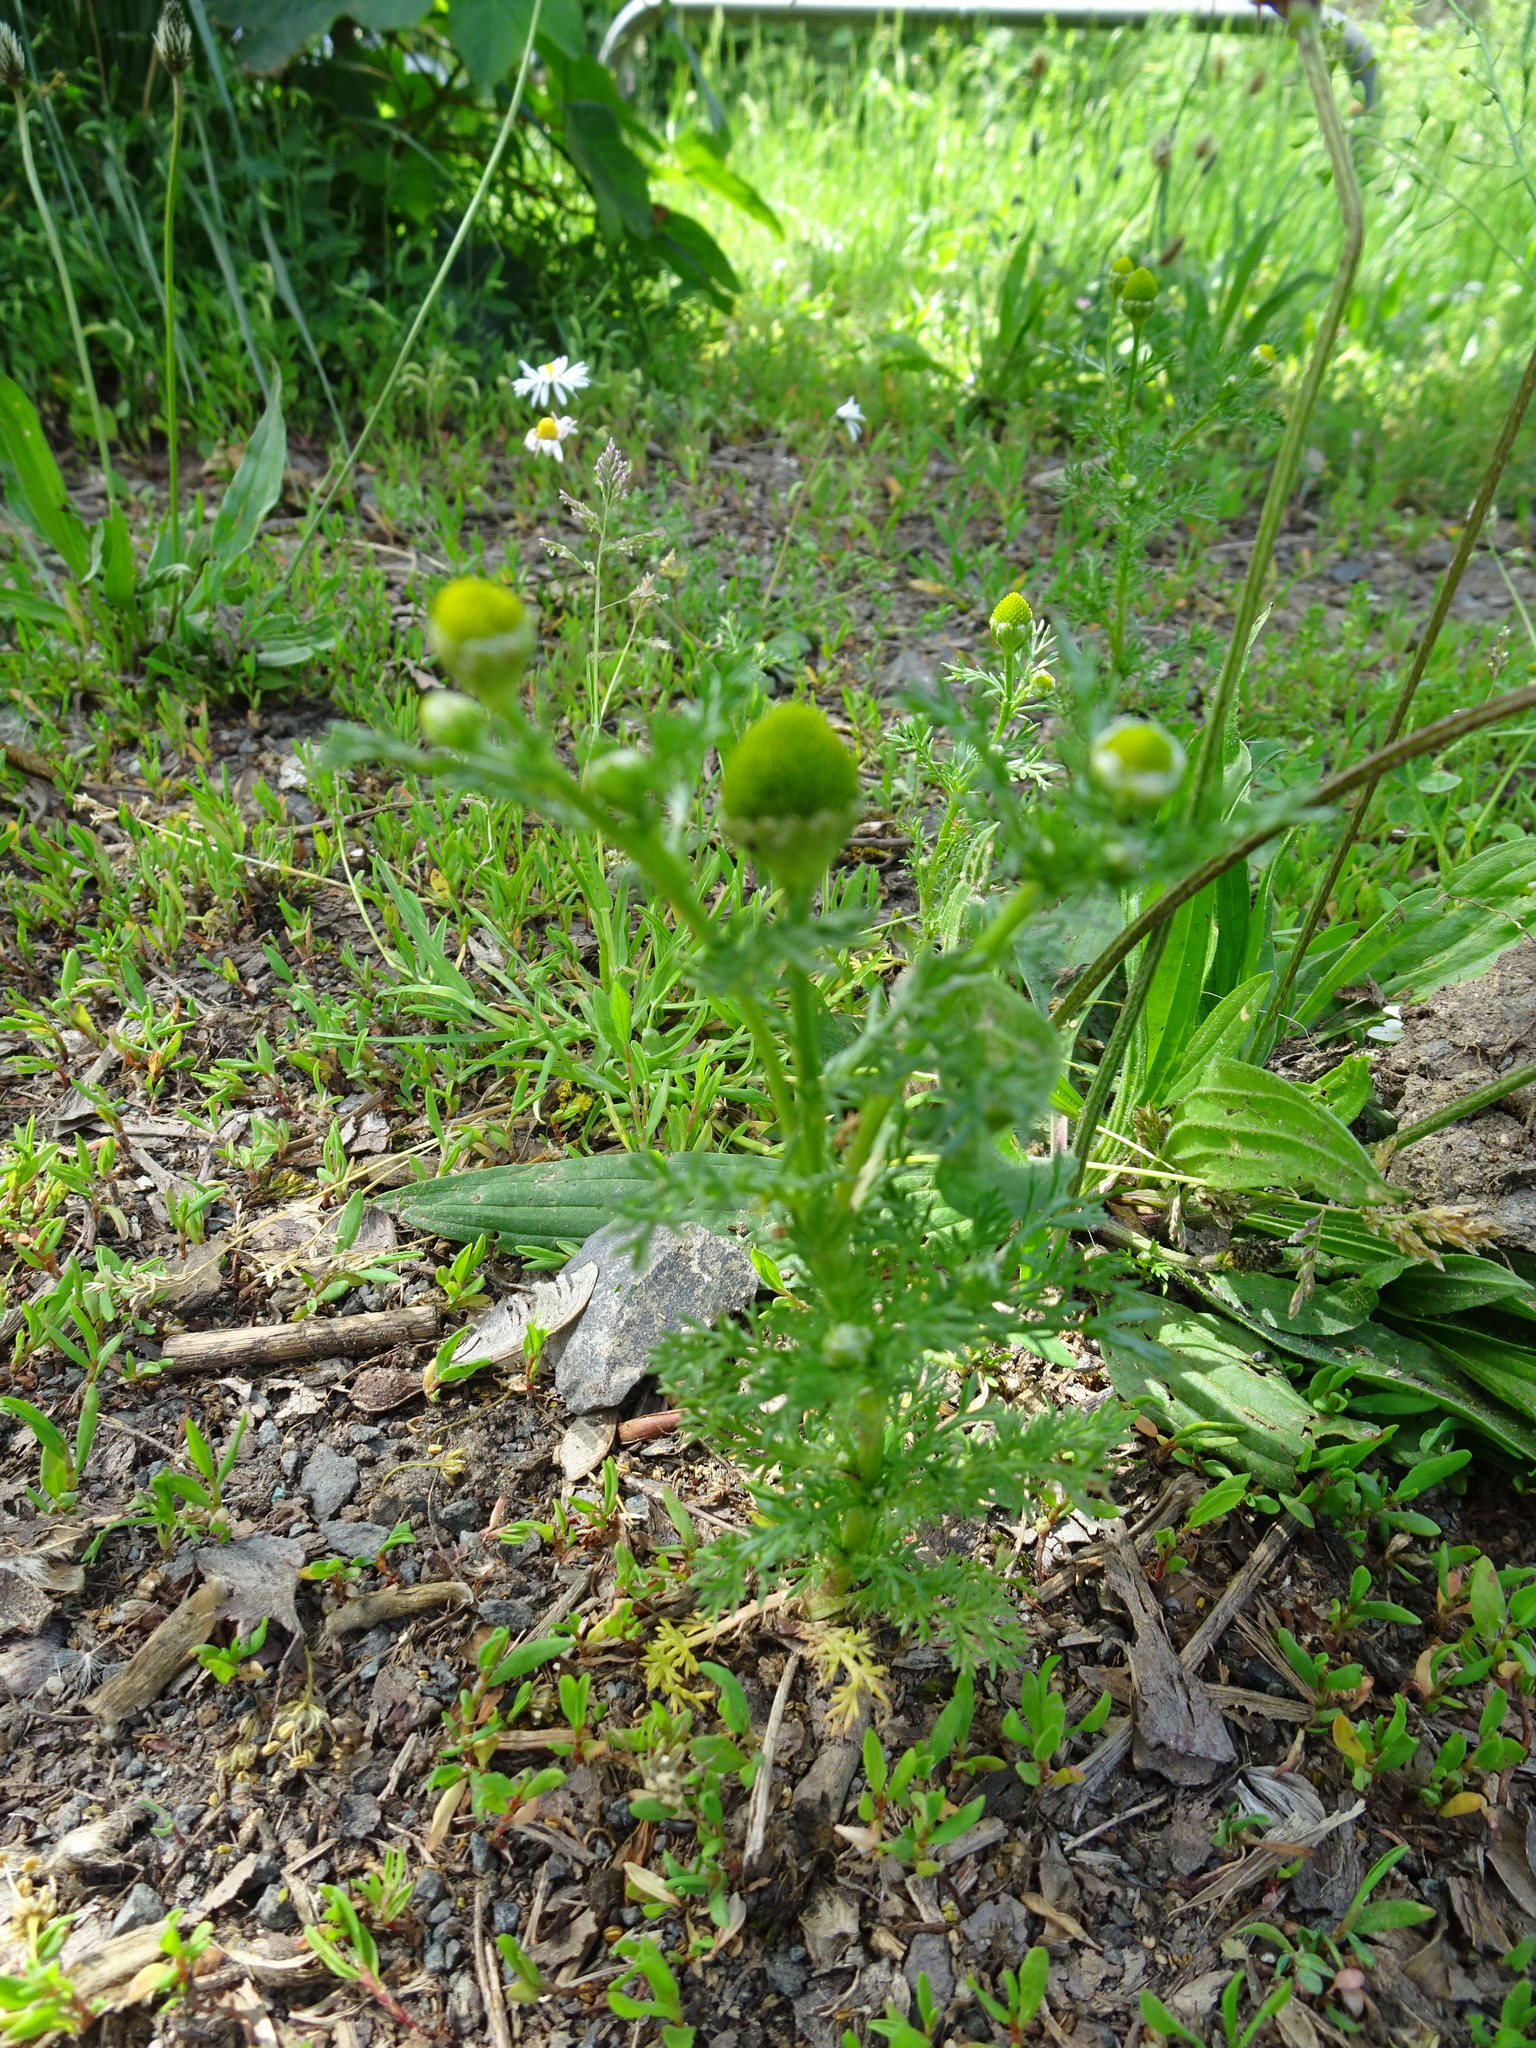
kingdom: Plantae
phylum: Tracheophyta
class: Magnoliopsida
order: Asterales
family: Asteraceae
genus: Matricaria
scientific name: Matricaria discoidea
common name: Disc mayweed
